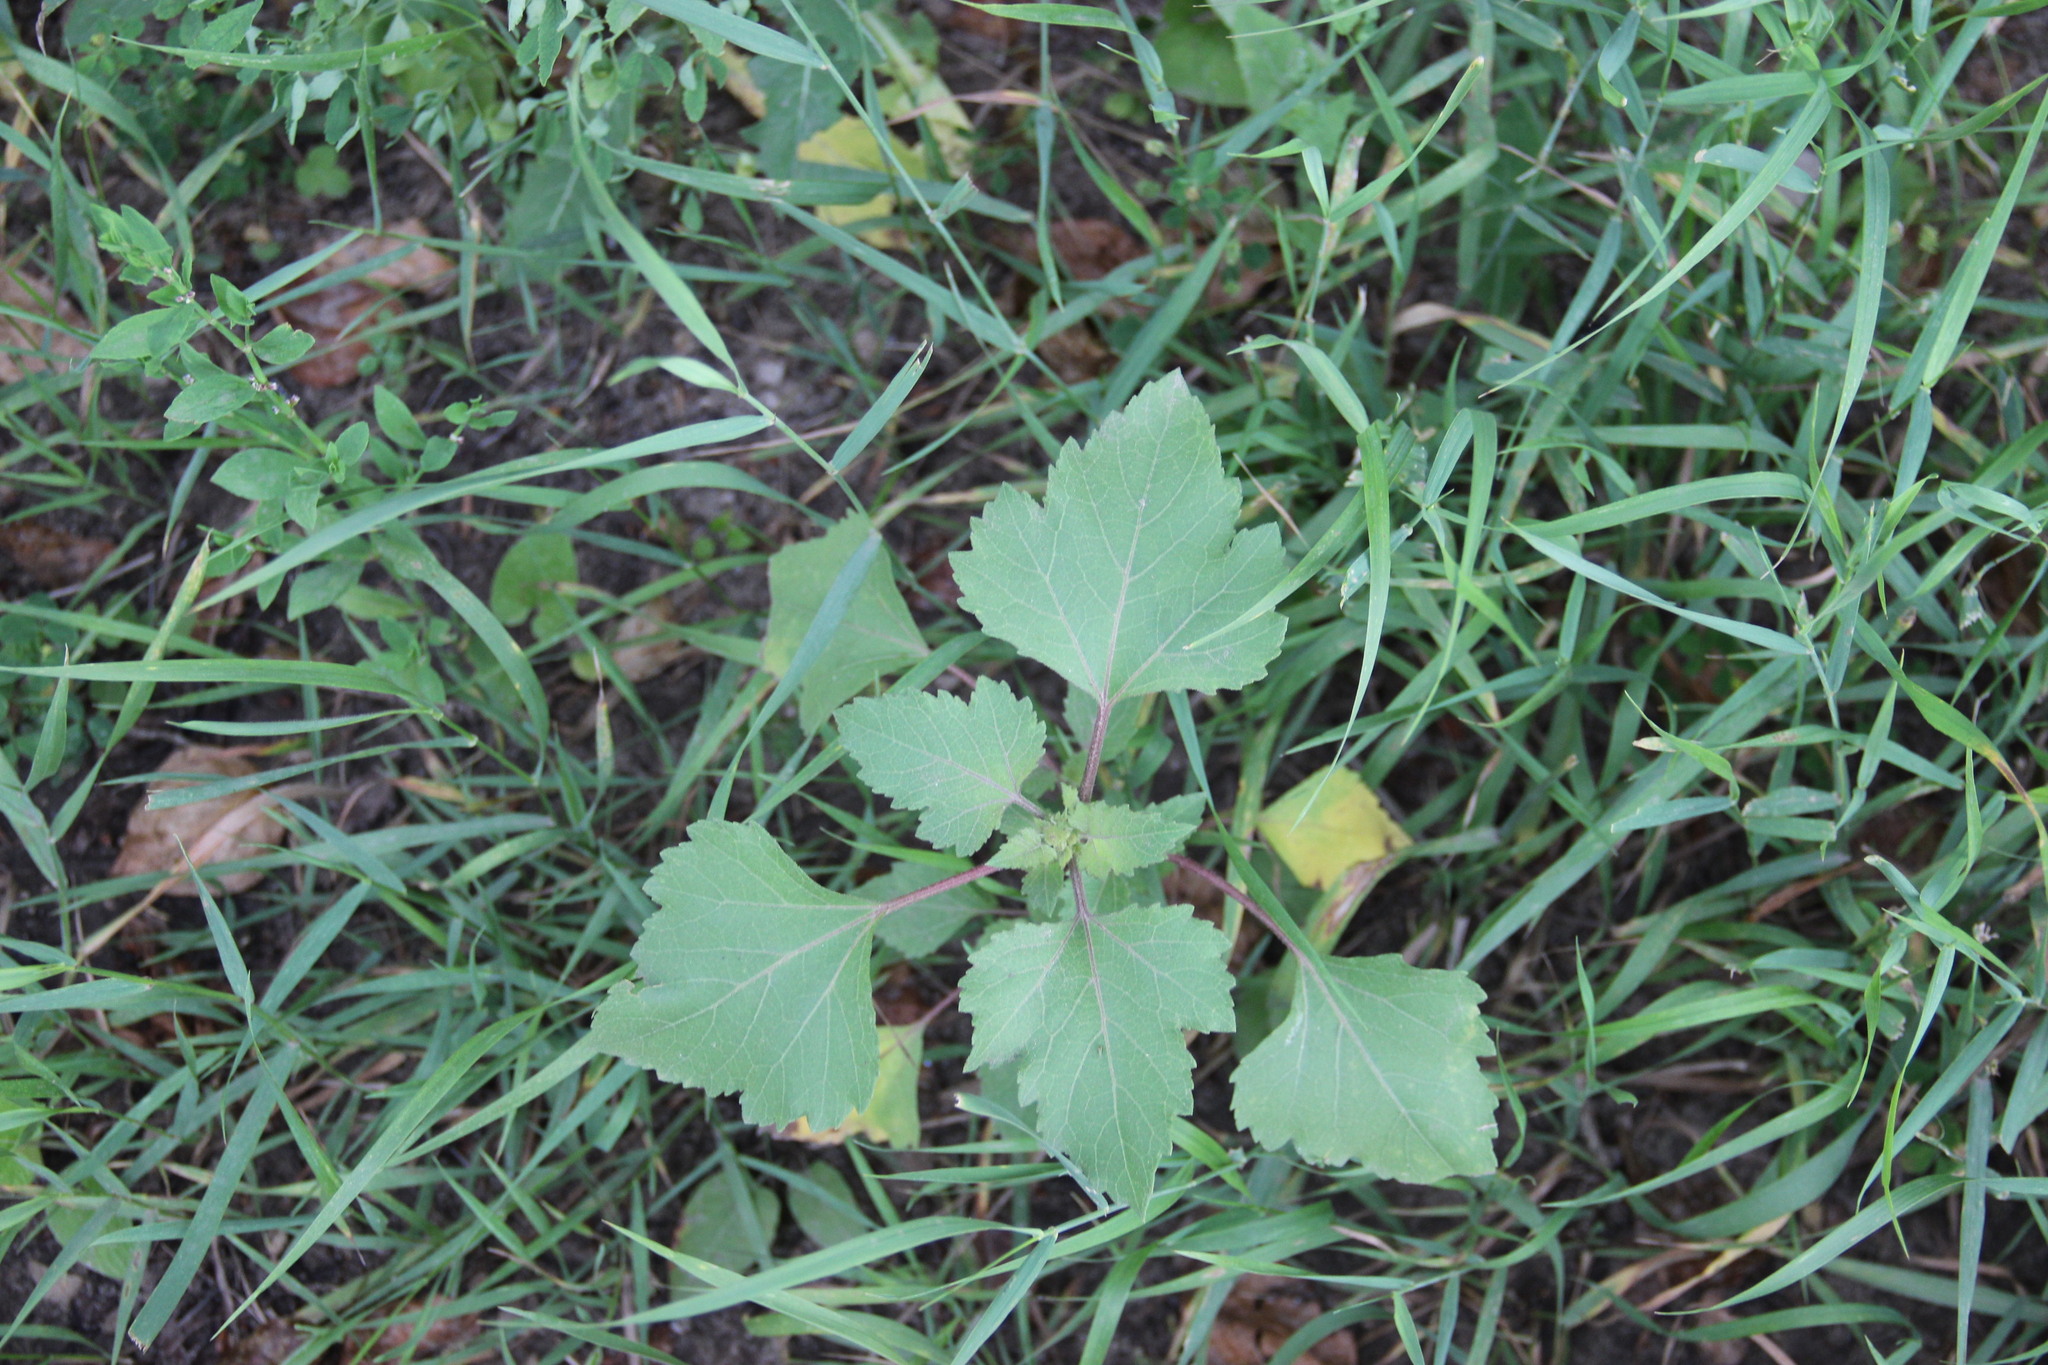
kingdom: Plantae
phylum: Tracheophyta
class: Magnoliopsida
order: Asterales
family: Asteraceae
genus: Xanthium
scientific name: Xanthium orientale
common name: Californian burr
